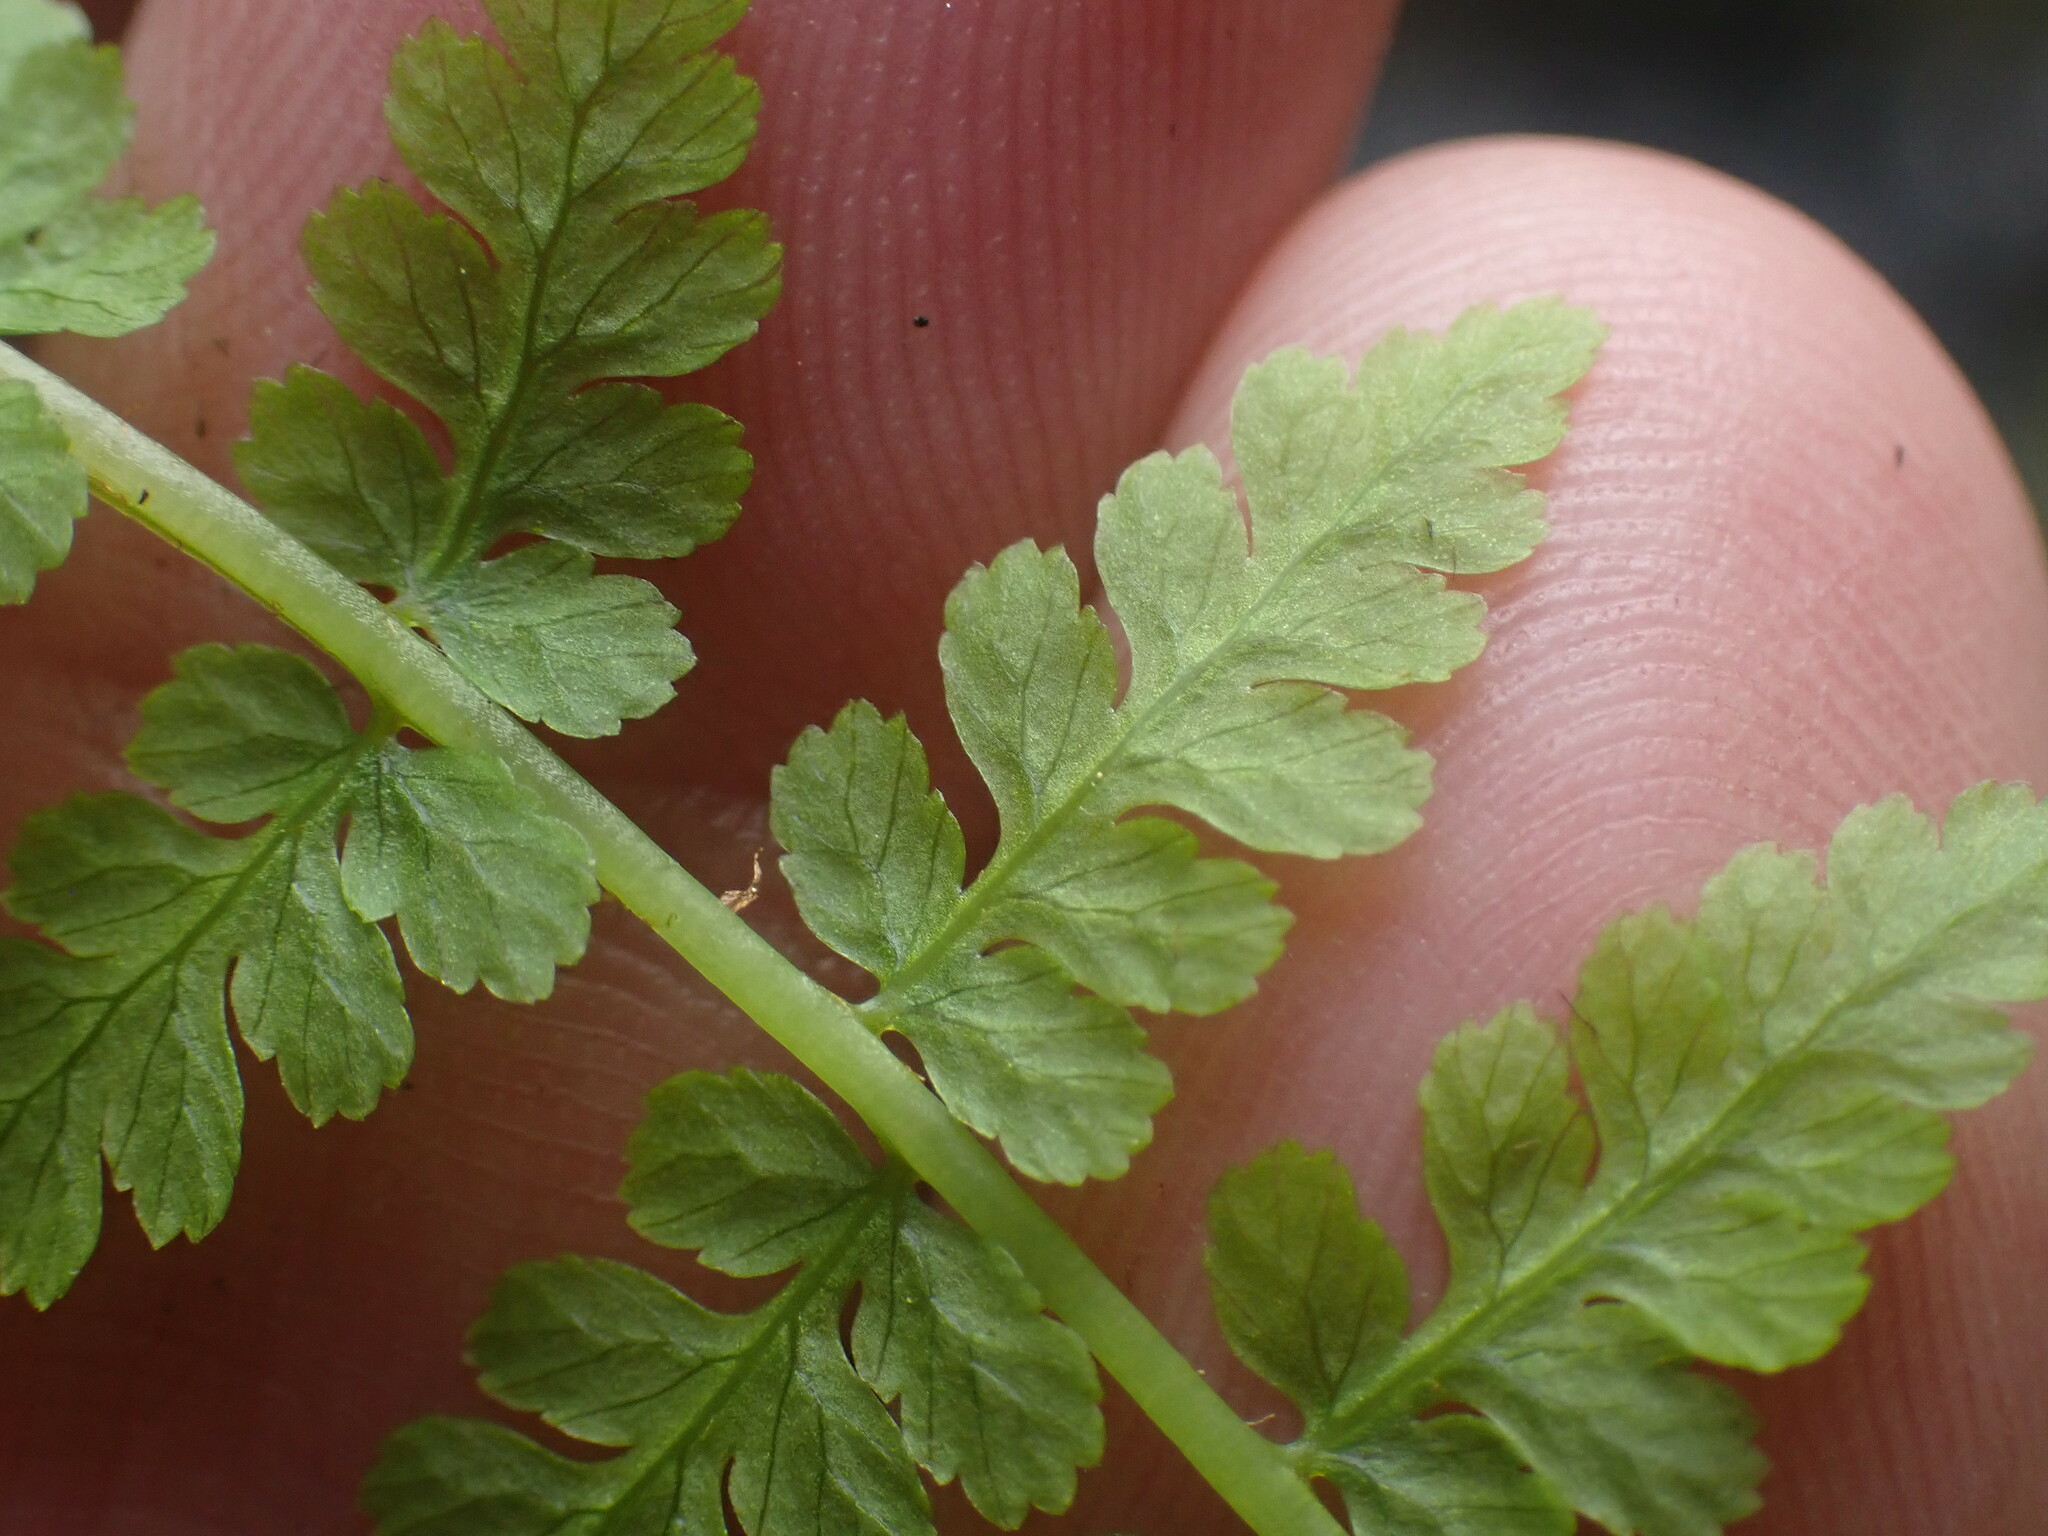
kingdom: Plantae
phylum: Tracheophyta
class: Polypodiopsida
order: Polypodiales
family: Athyriaceae
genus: Athyrium
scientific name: Athyrium filix-femina
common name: Lady fern
